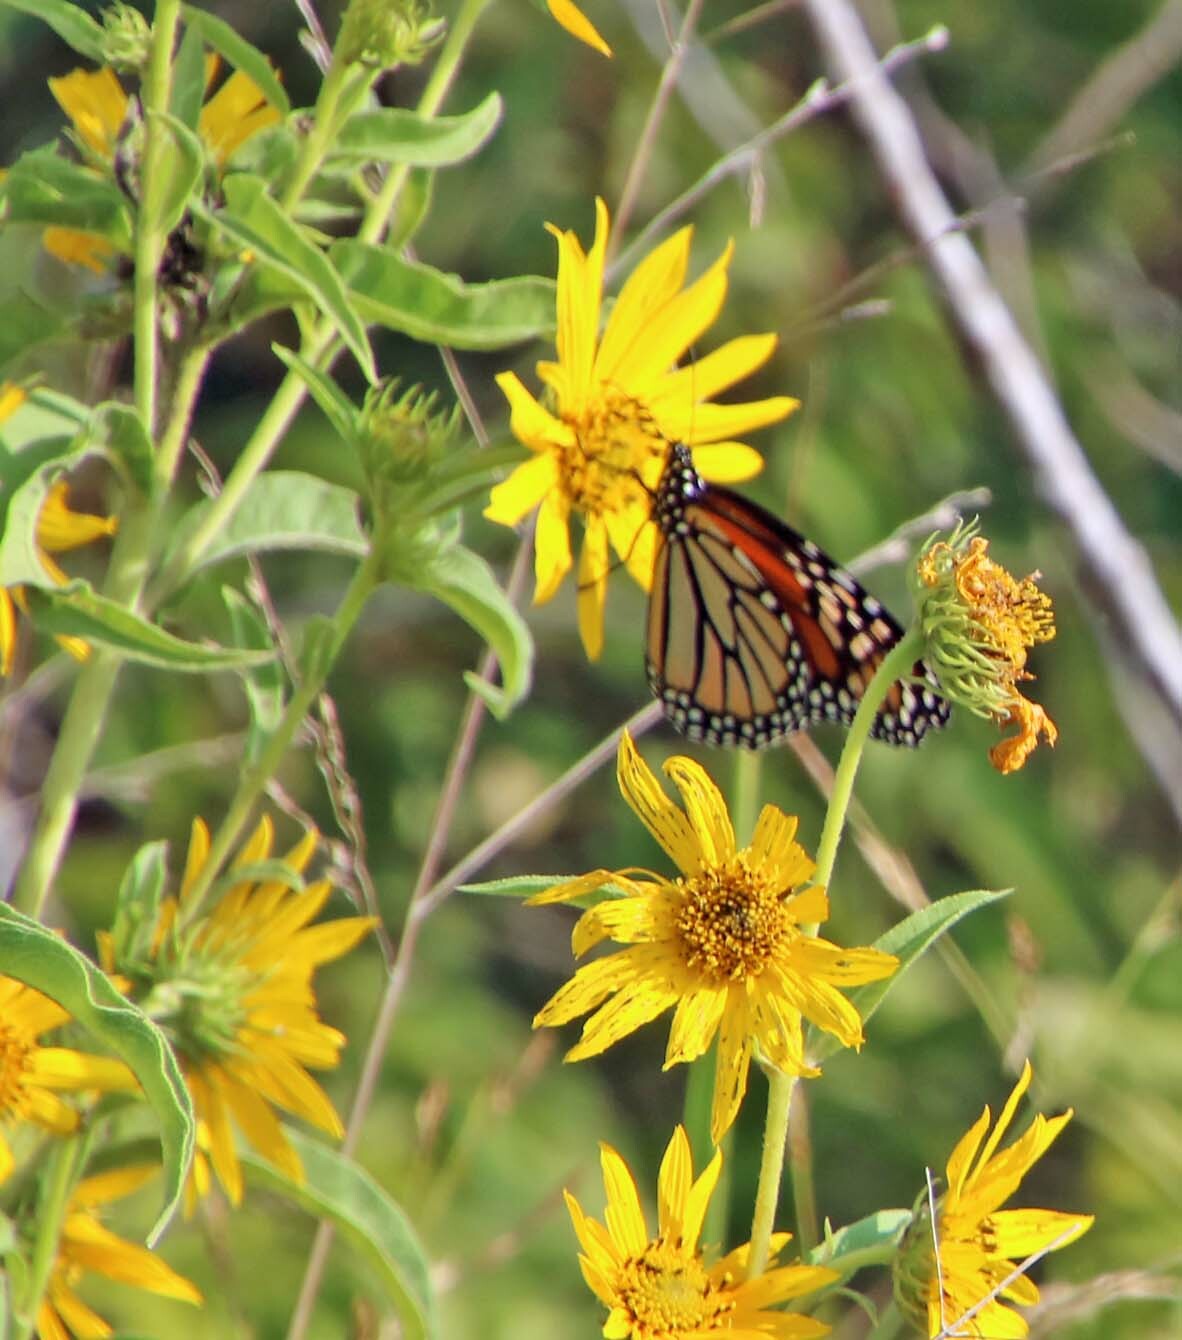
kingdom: Animalia
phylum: Arthropoda
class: Insecta
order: Lepidoptera
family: Nymphalidae
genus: Danaus
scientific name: Danaus plexippus
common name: Monarch
